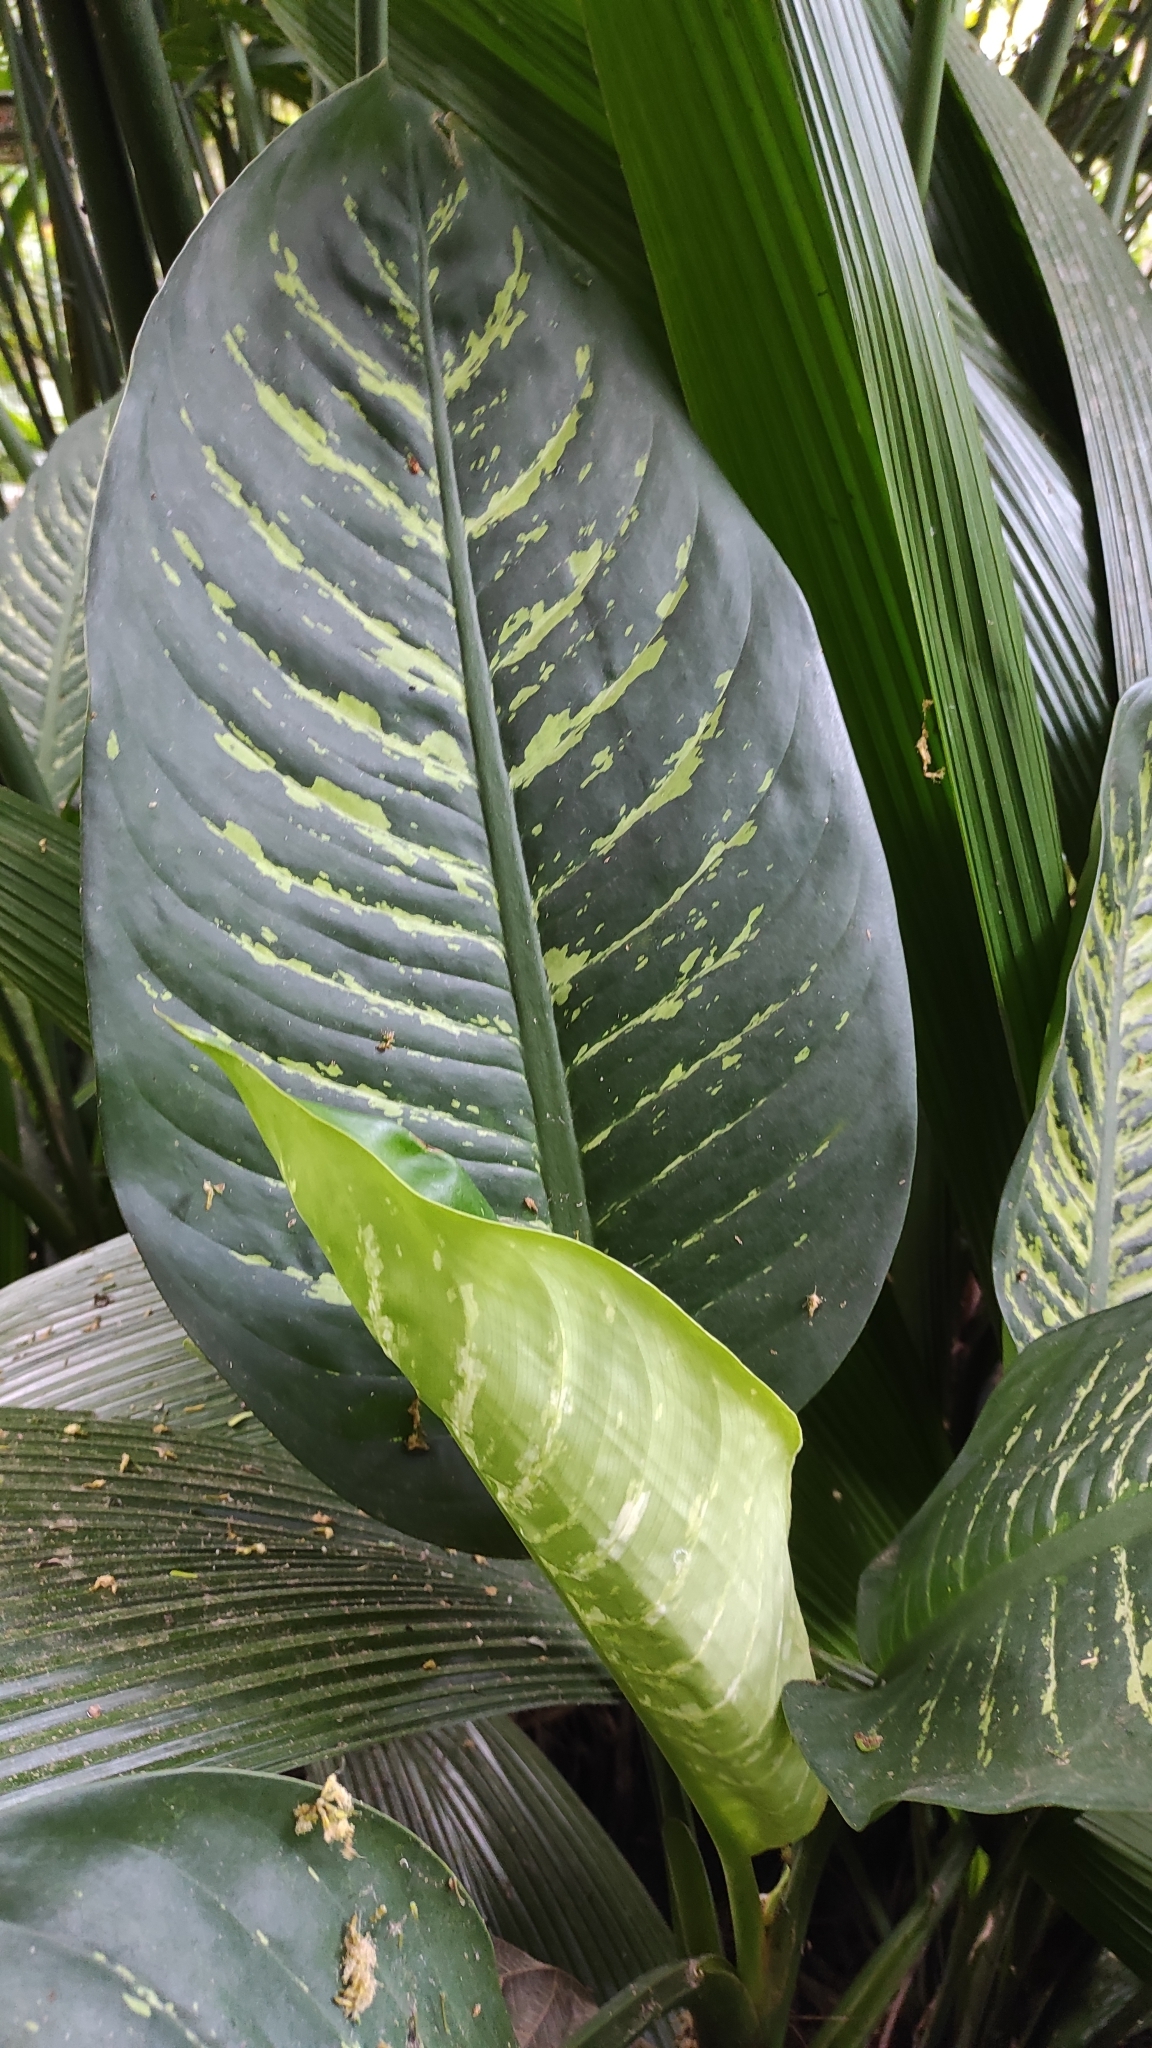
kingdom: Plantae
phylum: Tracheophyta
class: Liliopsida
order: Alismatales
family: Araceae
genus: Dieffenbachia
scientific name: Dieffenbachia seguine
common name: Dumbcane
